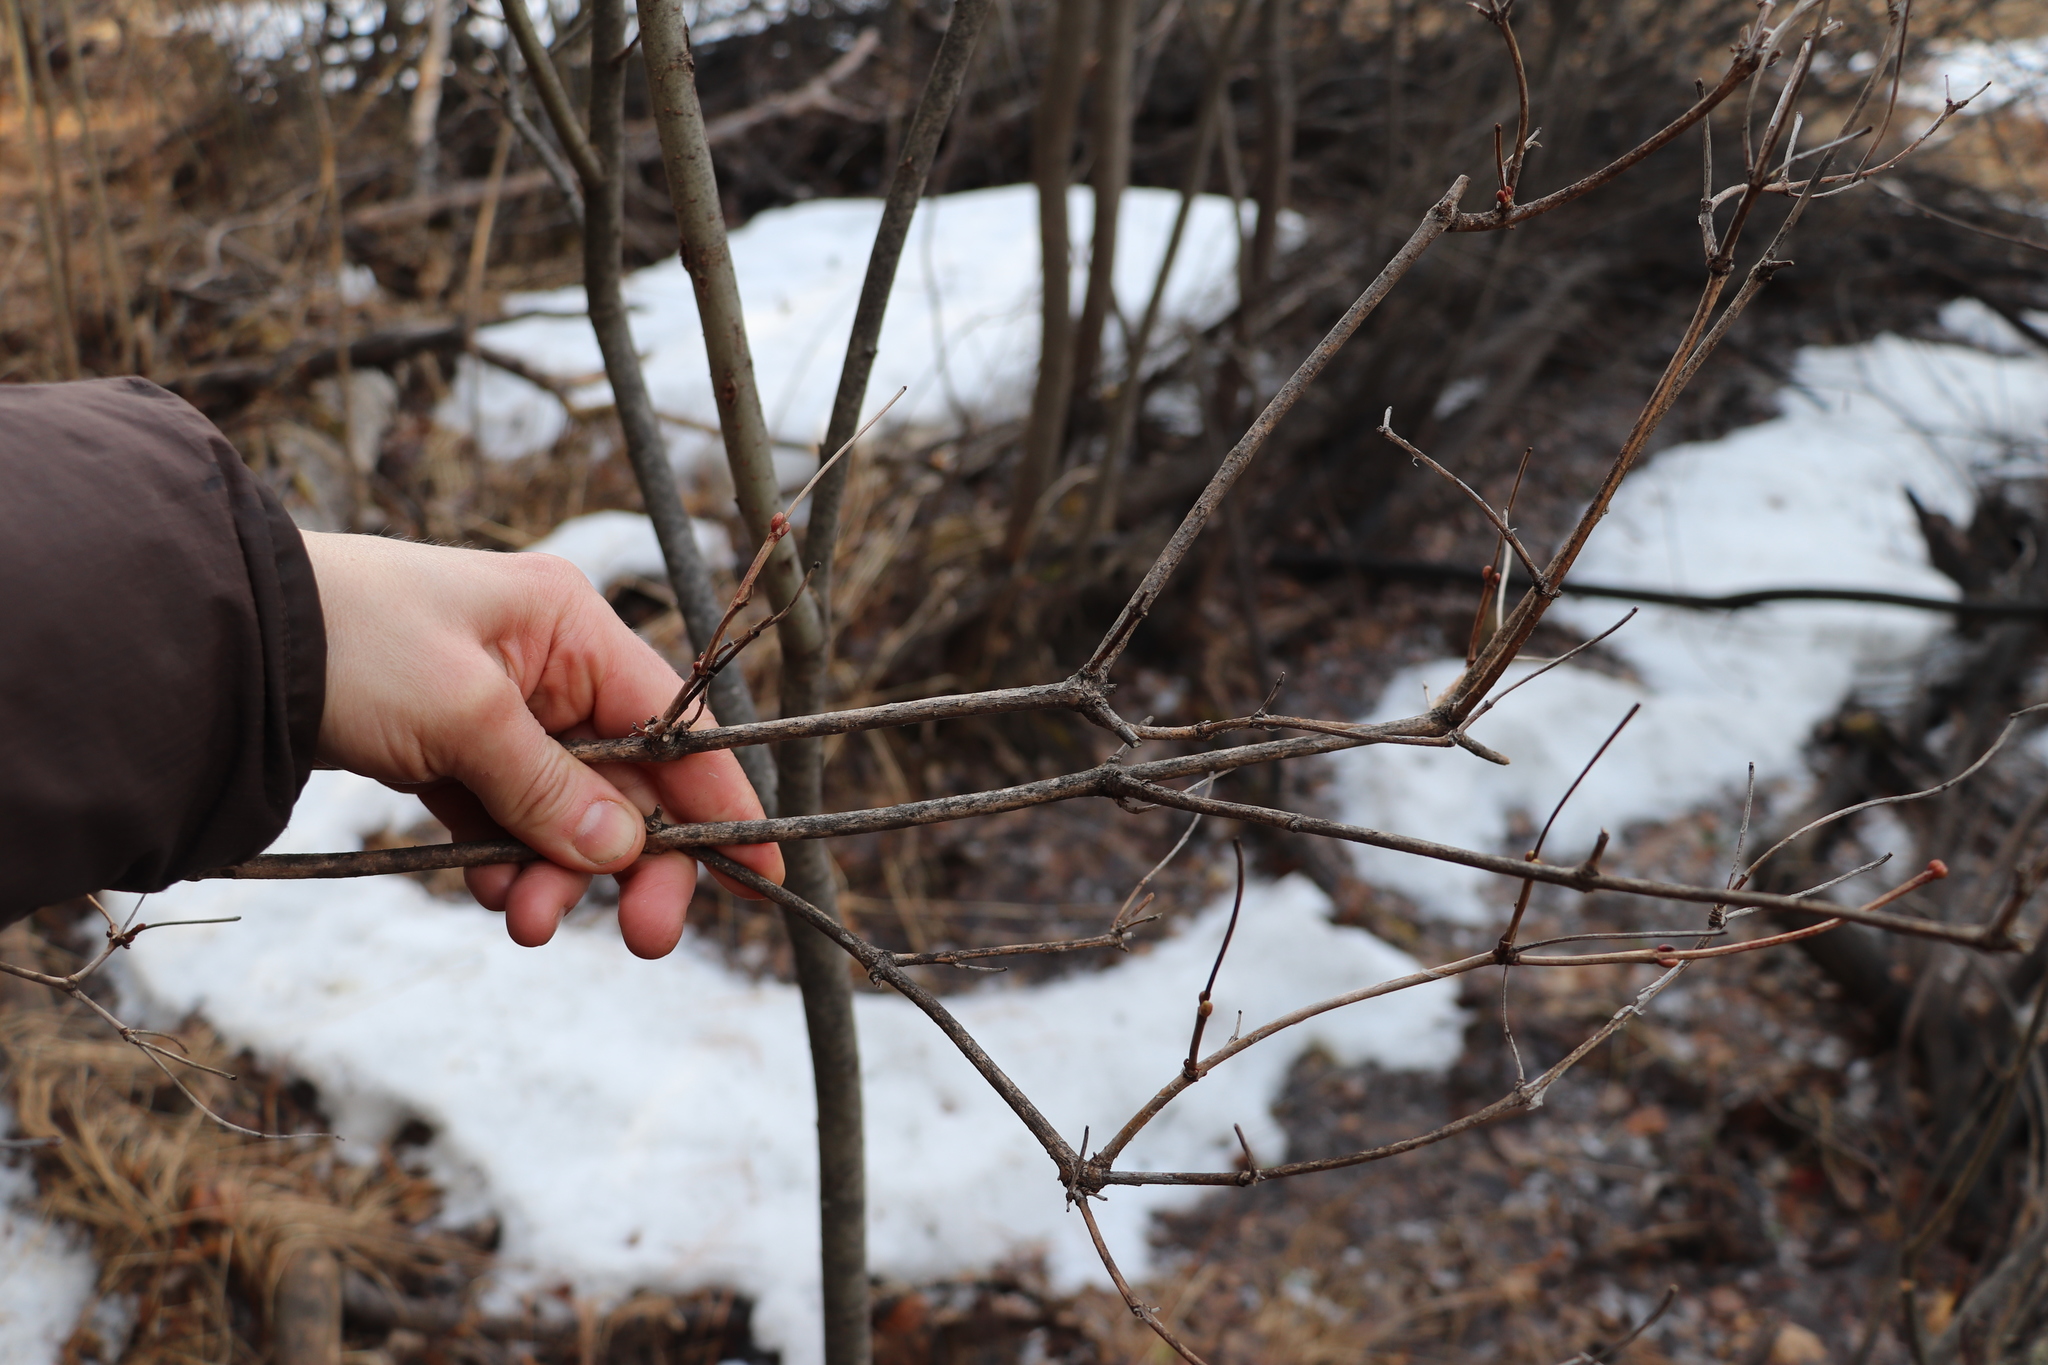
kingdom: Plantae
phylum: Tracheophyta
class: Magnoliopsida
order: Dipsacales
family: Viburnaceae
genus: Viburnum
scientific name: Viburnum opulus
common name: Guelder-rose
